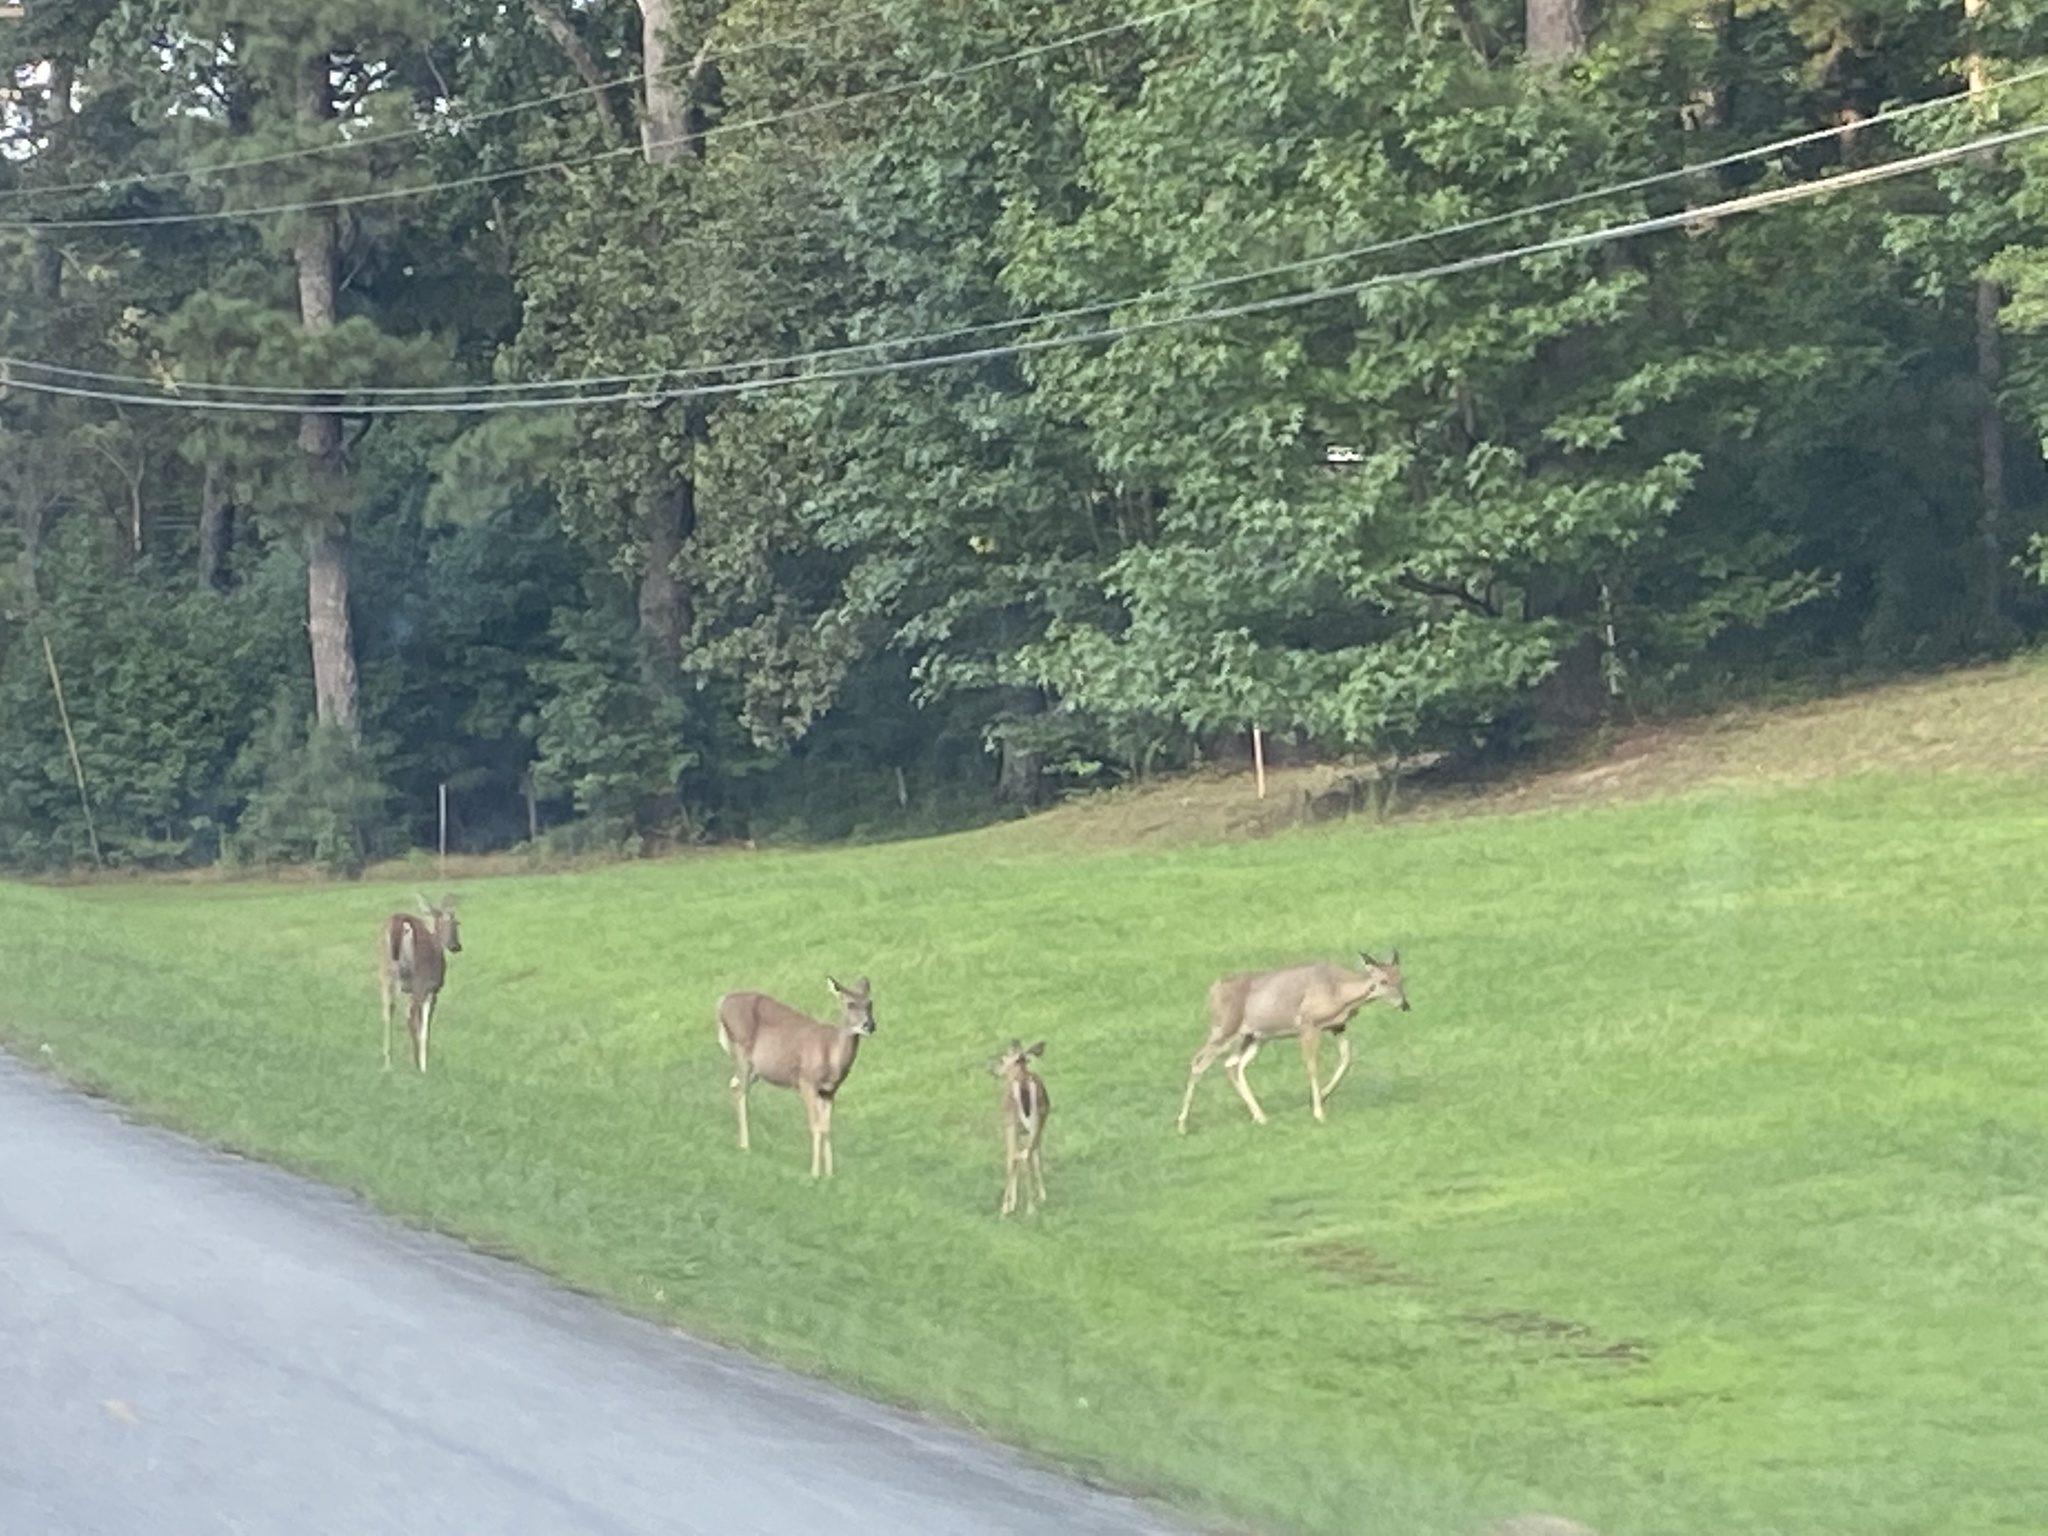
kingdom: Animalia
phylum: Chordata
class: Mammalia
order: Artiodactyla
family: Cervidae
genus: Odocoileus
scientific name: Odocoileus virginianus
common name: White-tailed deer
